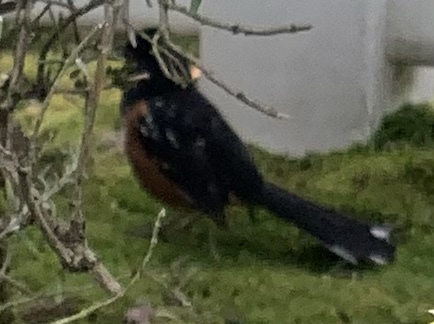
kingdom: Animalia
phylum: Chordata
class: Aves
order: Passeriformes
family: Passerellidae
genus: Pipilo
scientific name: Pipilo maculatus
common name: Spotted towhee
